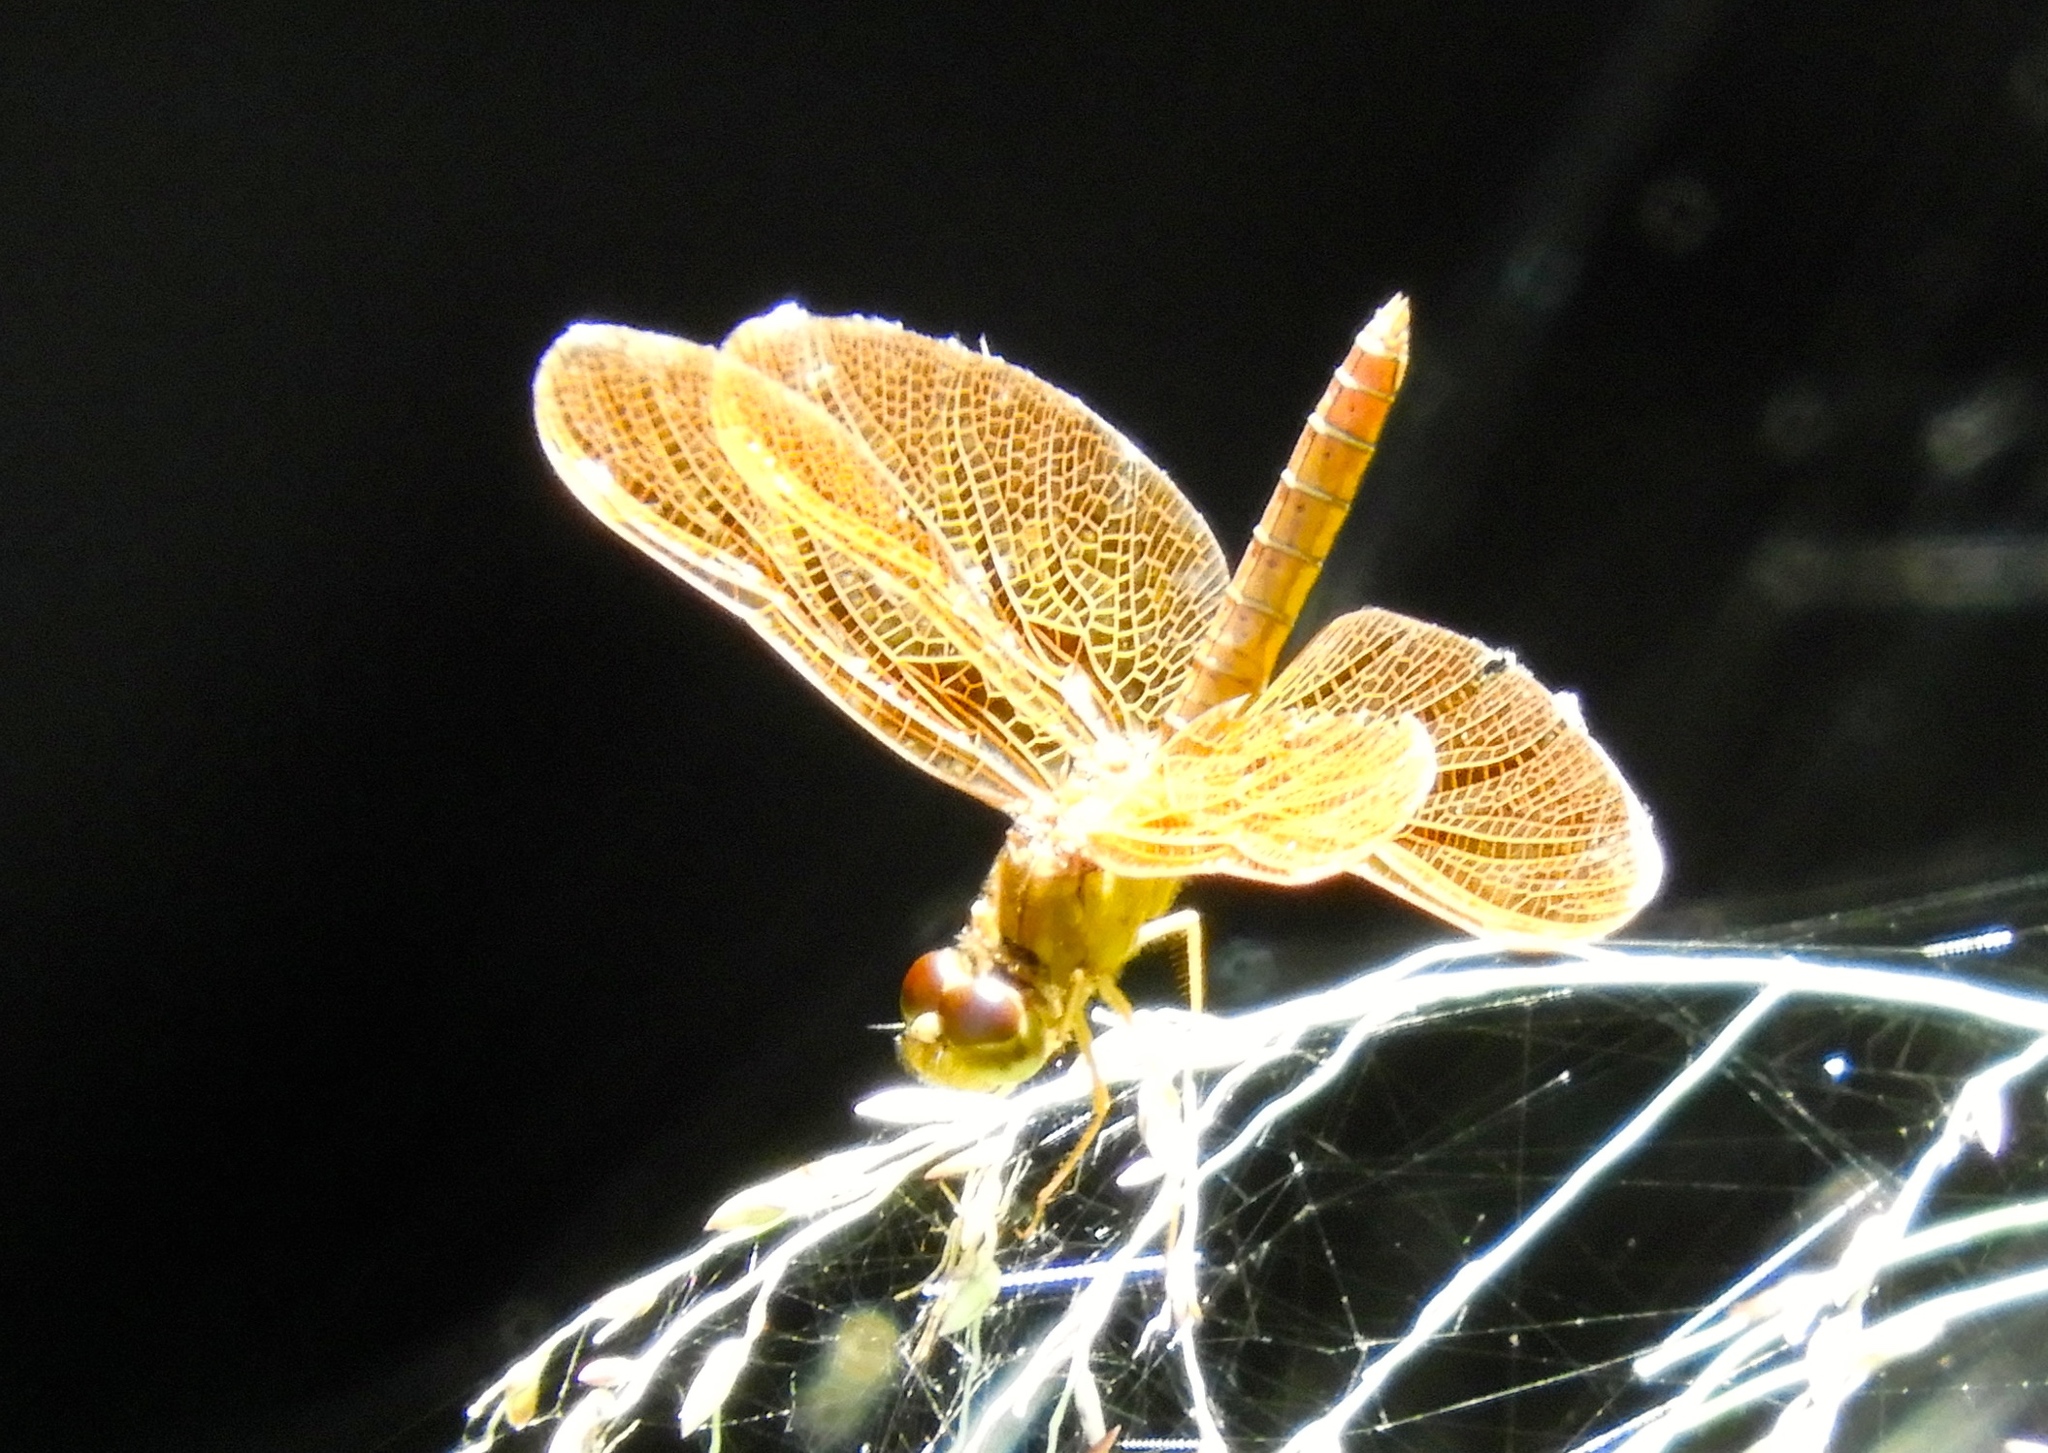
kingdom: Animalia
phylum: Arthropoda
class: Insecta
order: Odonata
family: Libellulidae
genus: Perithemis
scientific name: Perithemis intensa
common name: Mexican amberwing
